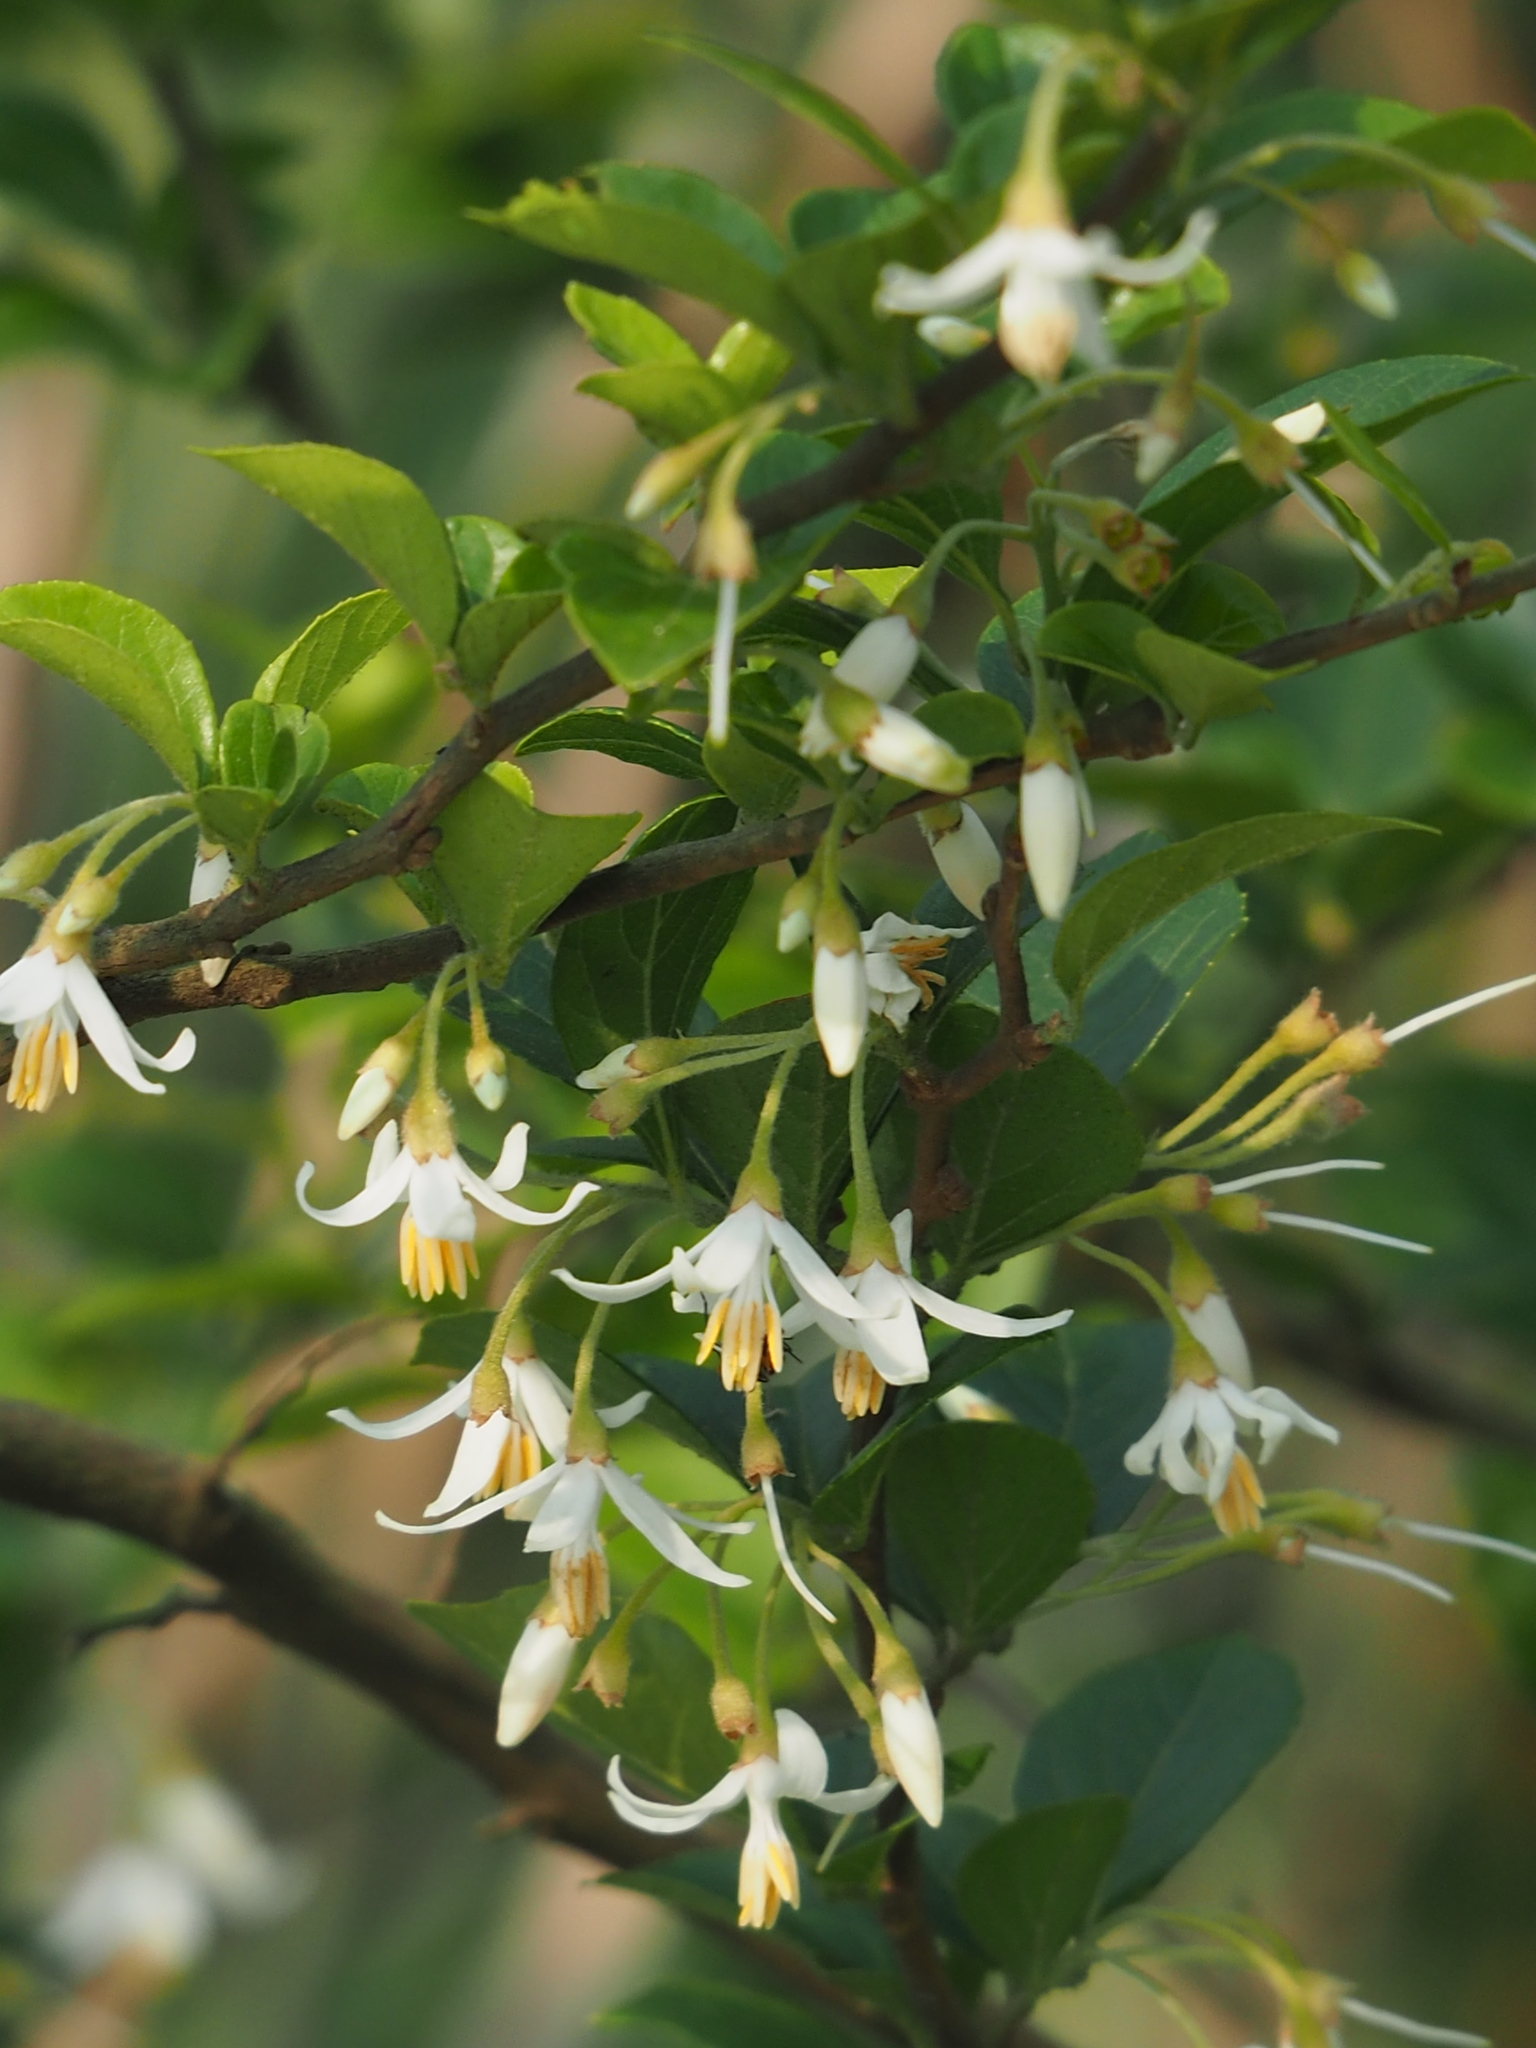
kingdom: Plantae
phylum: Tracheophyta
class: Magnoliopsida
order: Ericales
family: Styracaceae
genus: Styrax
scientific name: Styrax formosanus
